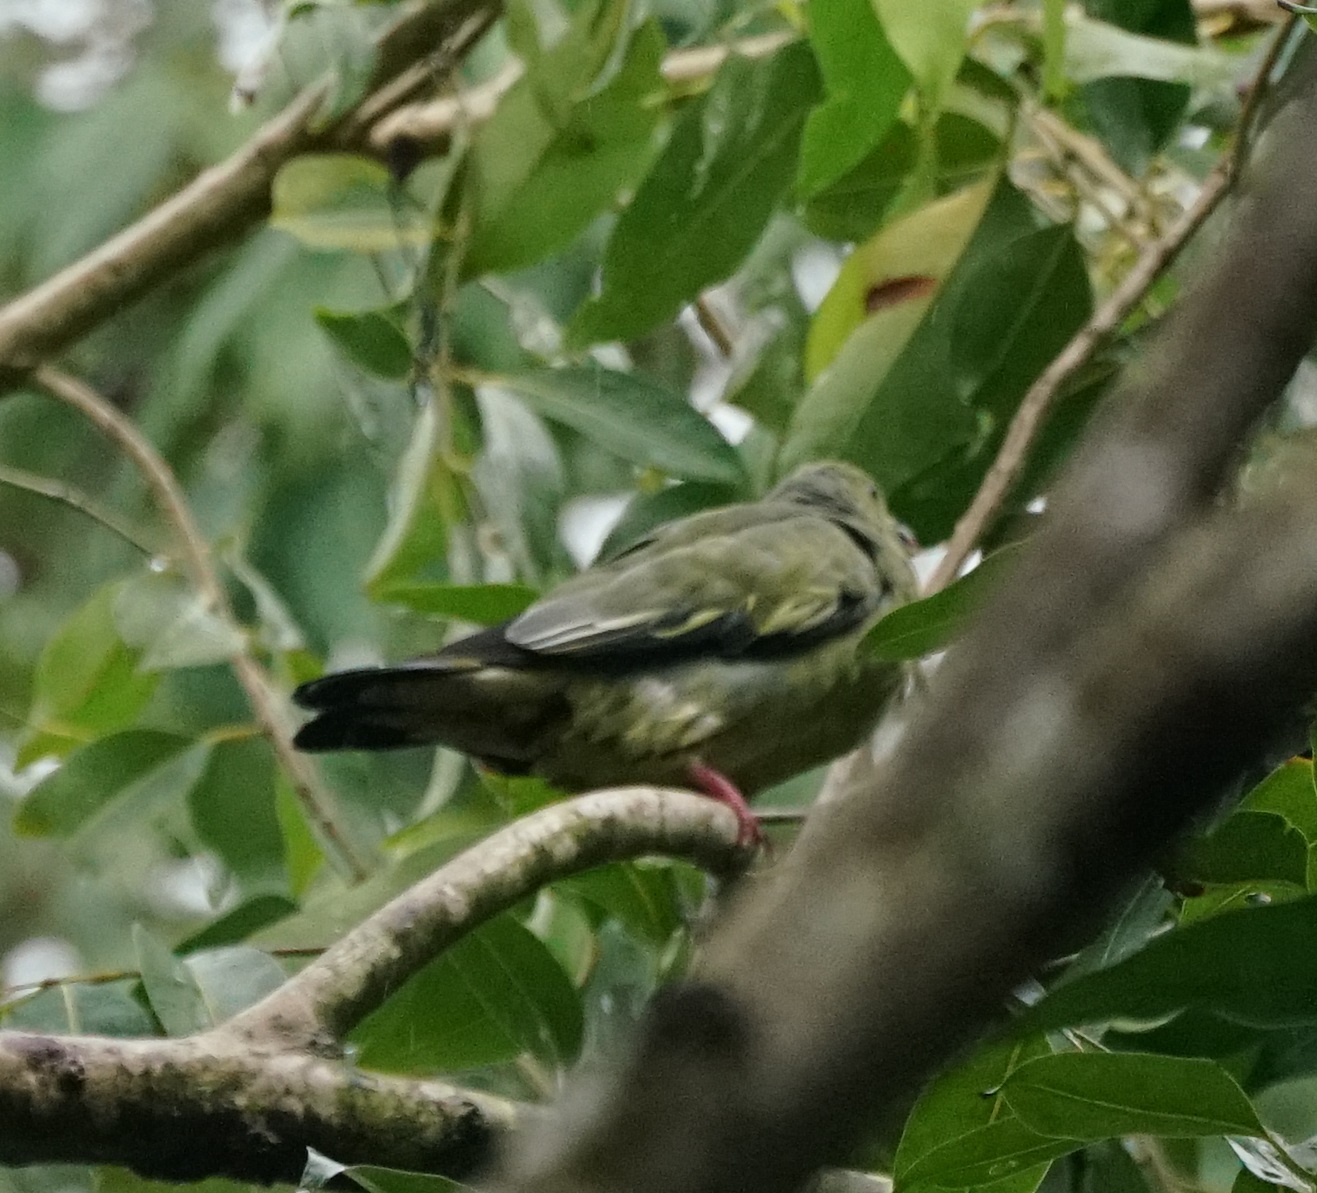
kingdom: Animalia
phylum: Chordata
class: Aves
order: Columbiformes
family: Columbidae
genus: Treron
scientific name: Treron vernans
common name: Pink-necked green pigeon
